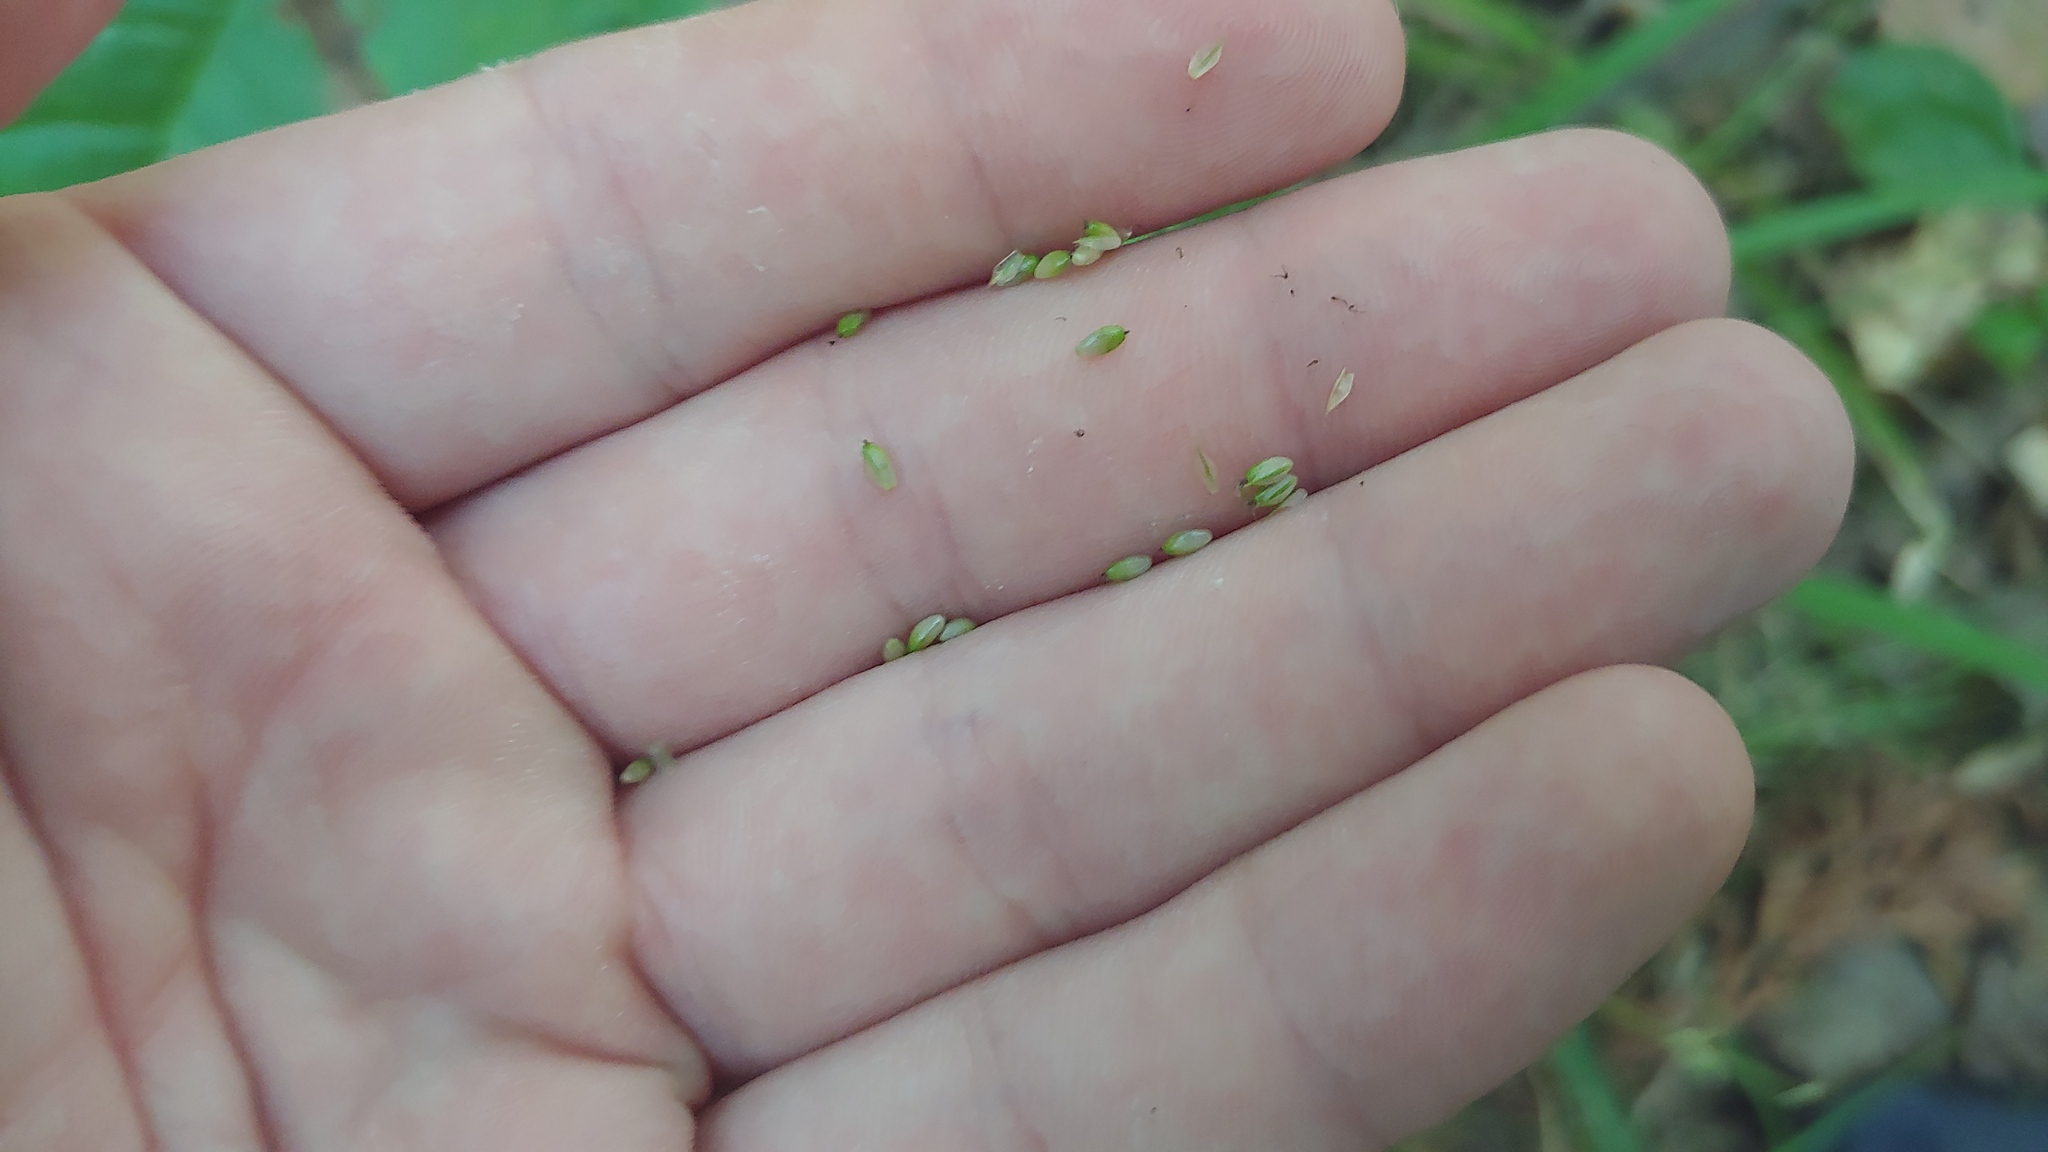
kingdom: Plantae
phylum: Tracheophyta
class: Liliopsida
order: Poales
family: Cyperaceae
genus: Carex
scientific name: Carex pallescens
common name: Pale sedge
